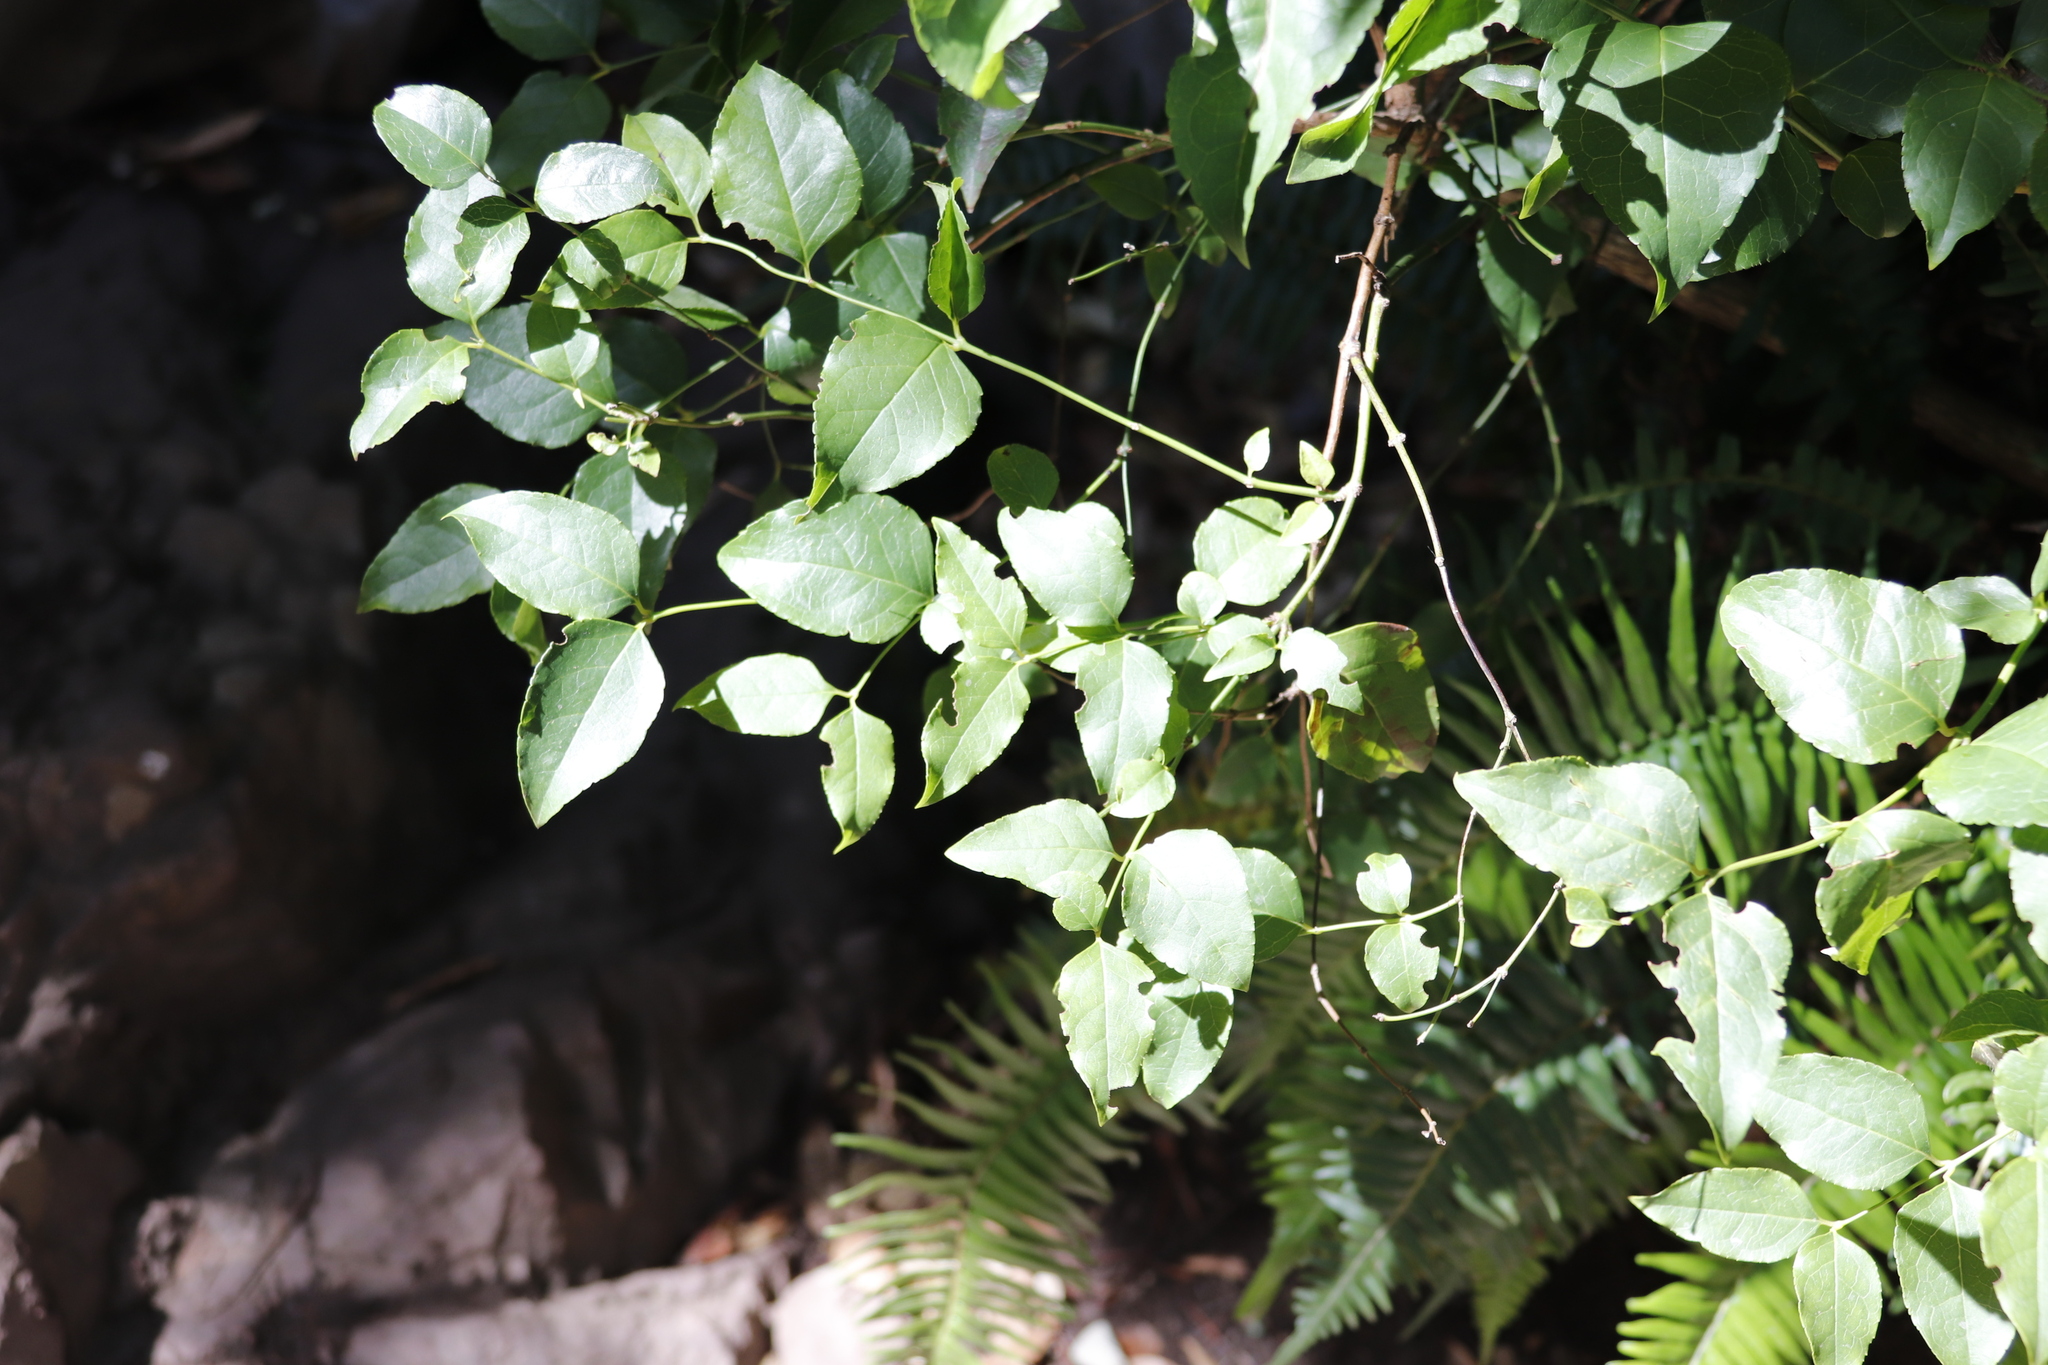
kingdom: Plantae
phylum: Tracheophyta
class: Magnoliopsida
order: Lamiales
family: Stilbaceae
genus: Halleria
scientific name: Halleria lucida
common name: Tree fuschia
